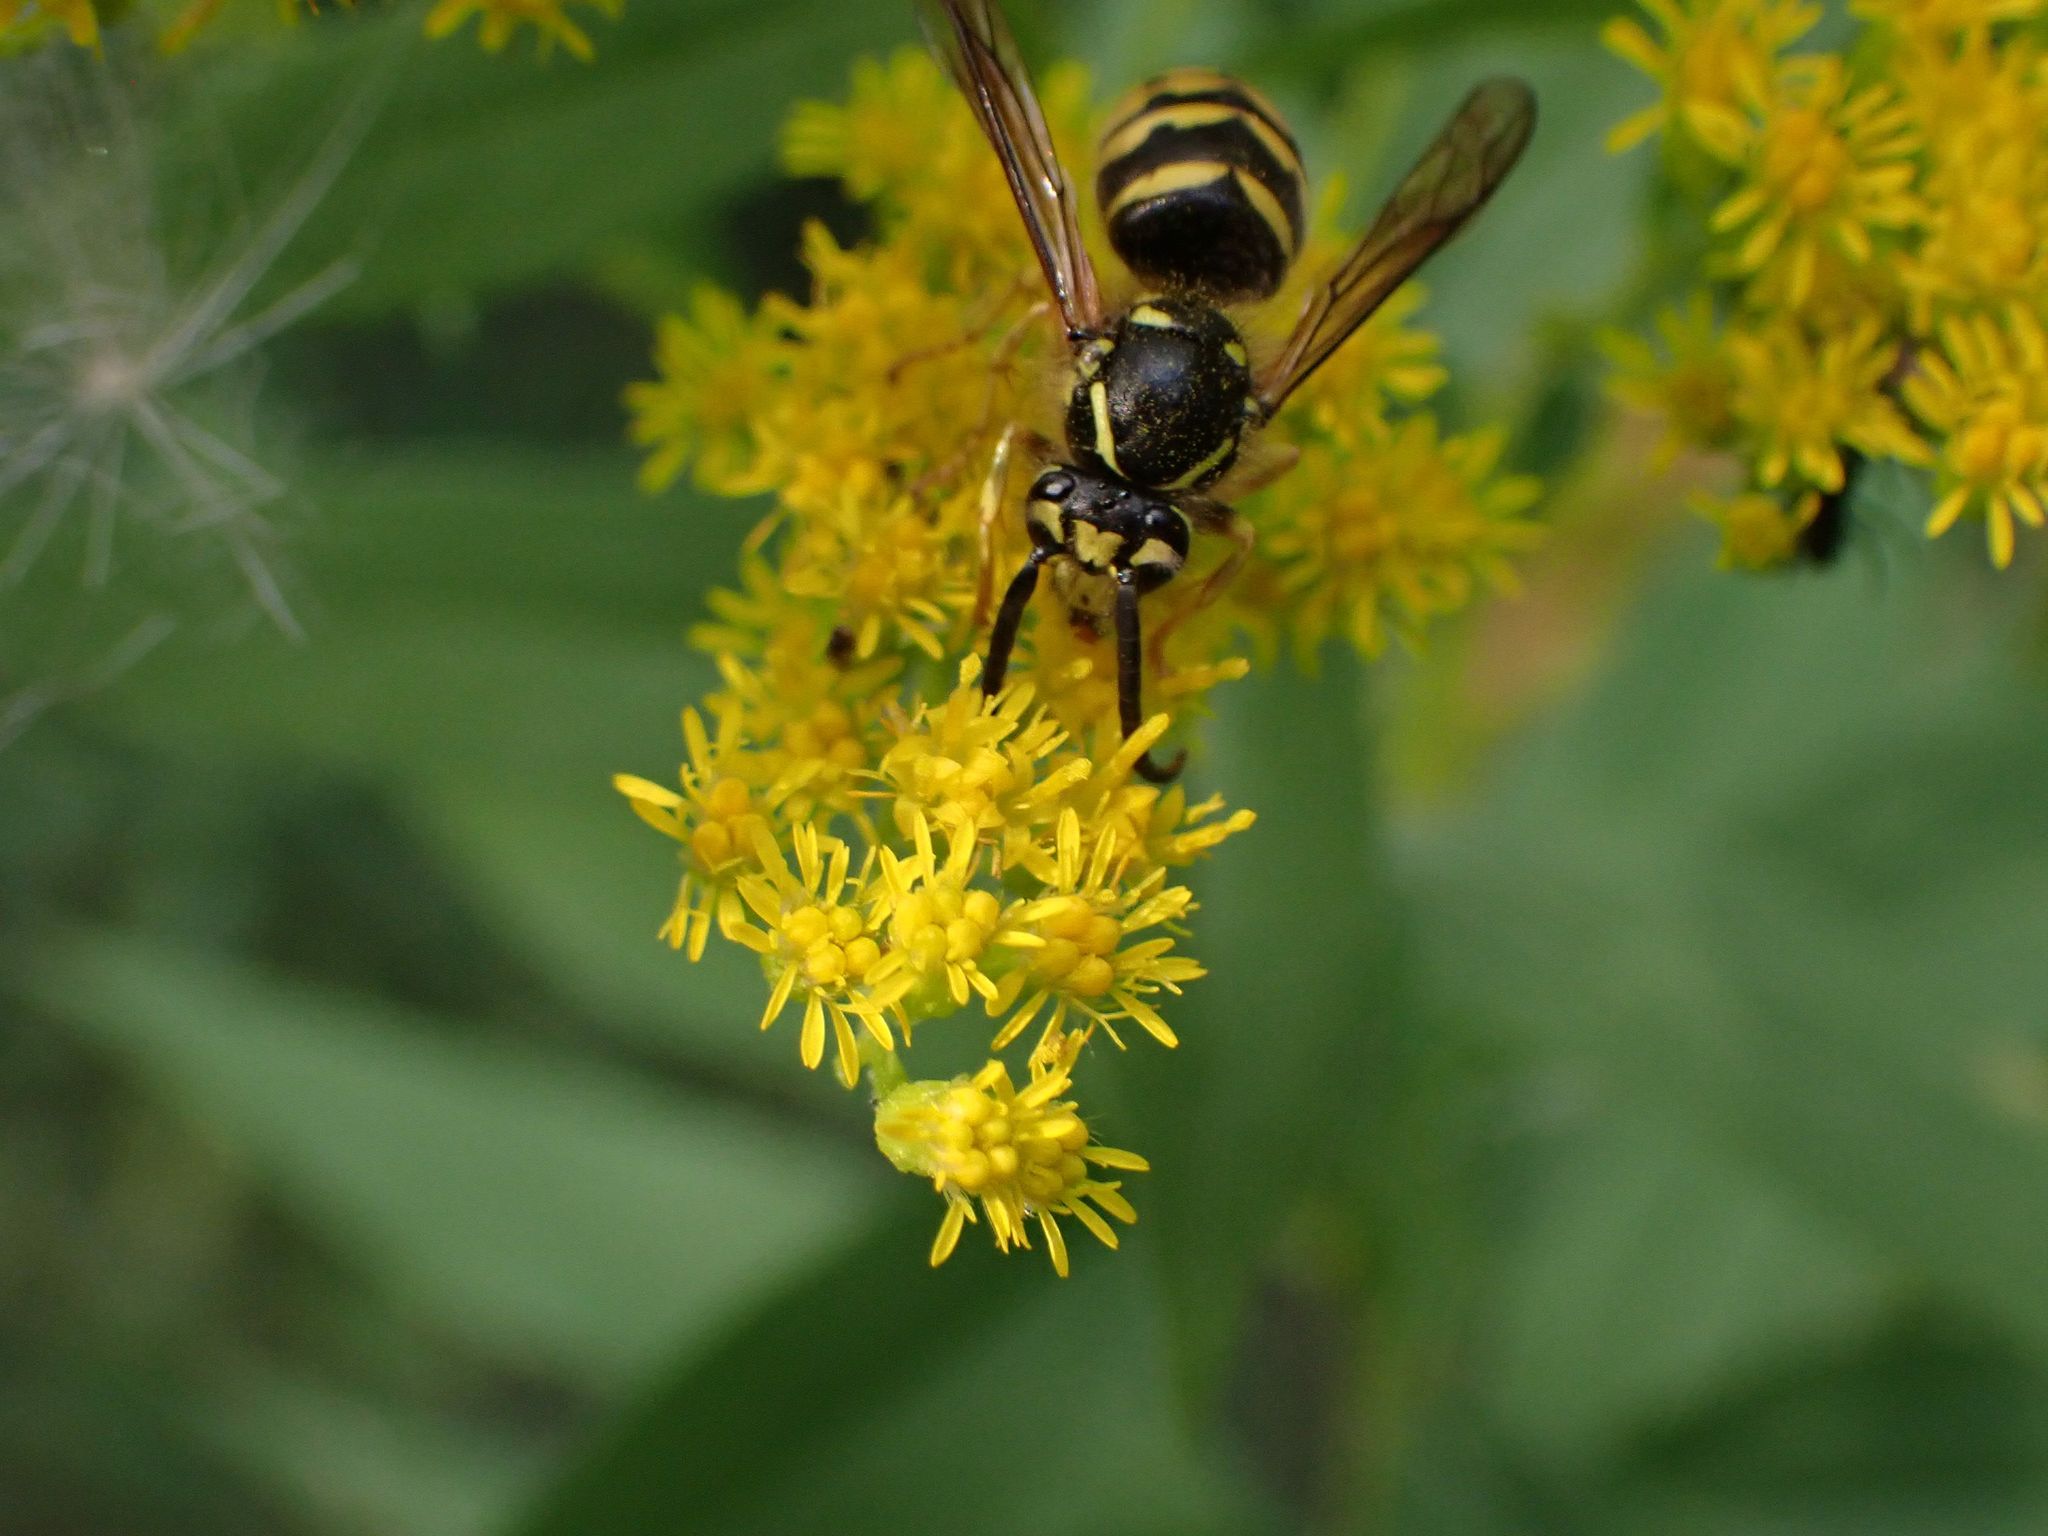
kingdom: Animalia
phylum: Arthropoda
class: Insecta
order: Hymenoptera
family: Vespidae
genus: Dolichovespula
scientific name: Dolichovespula arenaria
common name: Aerial yellowjacket
